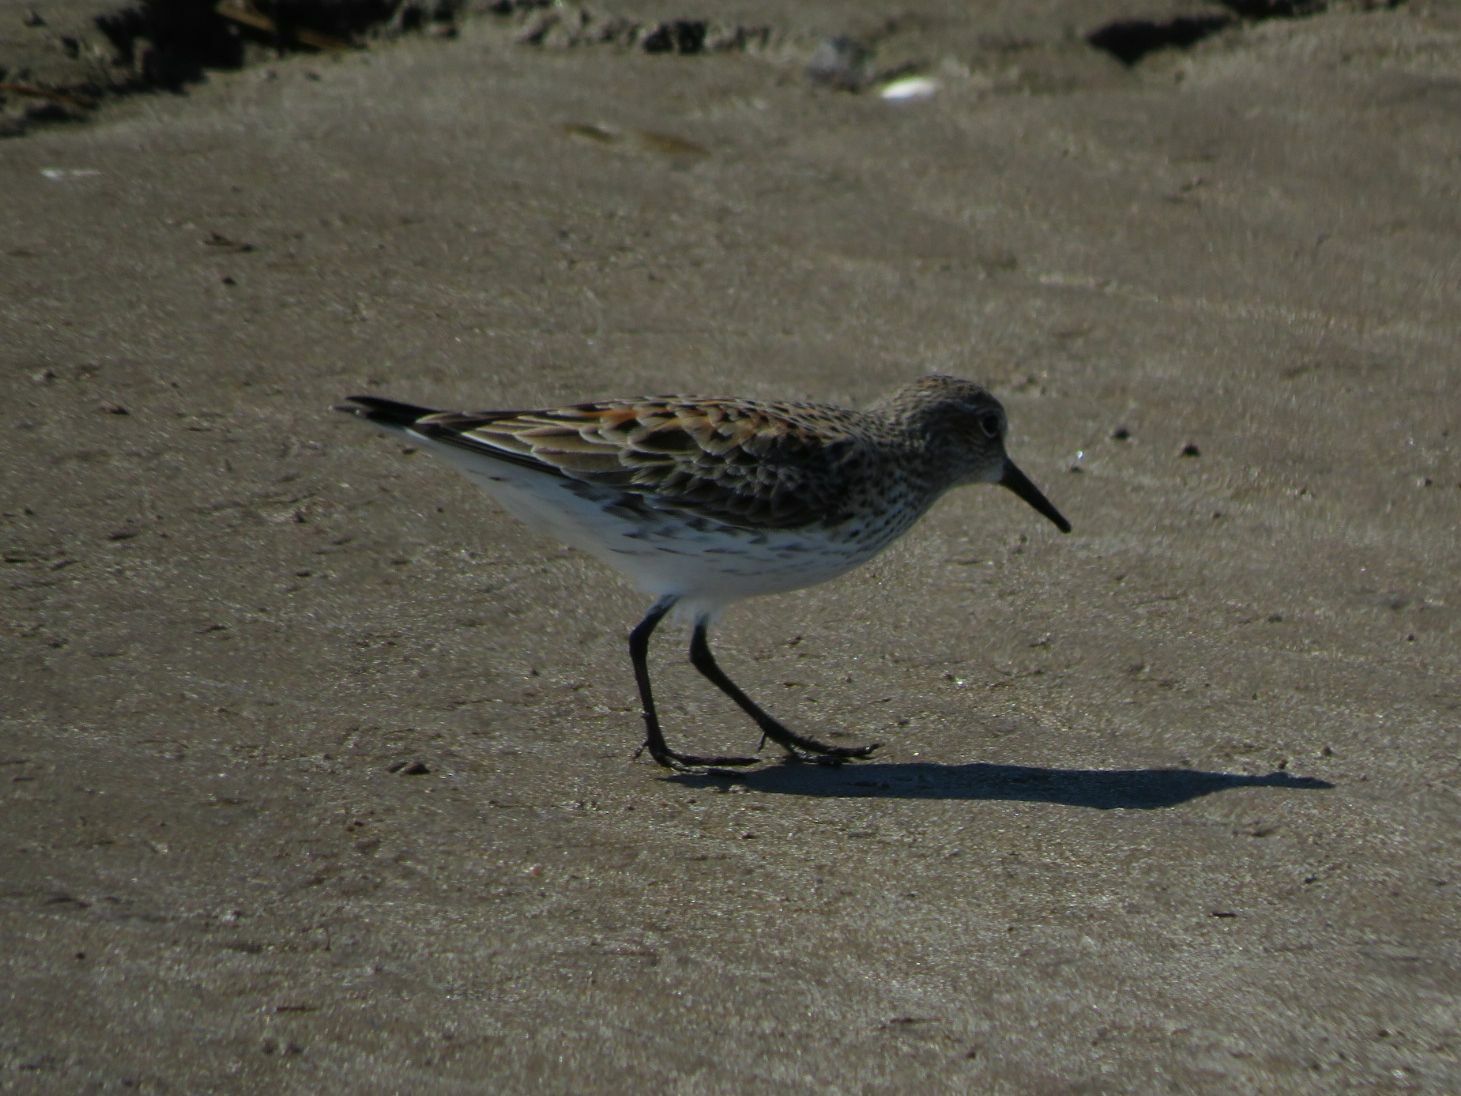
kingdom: Animalia
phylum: Chordata
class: Aves
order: Charadriiformes
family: Scolopacidae
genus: Calidris
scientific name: Calidris fuscicollis
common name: White-rumped sandpiper
